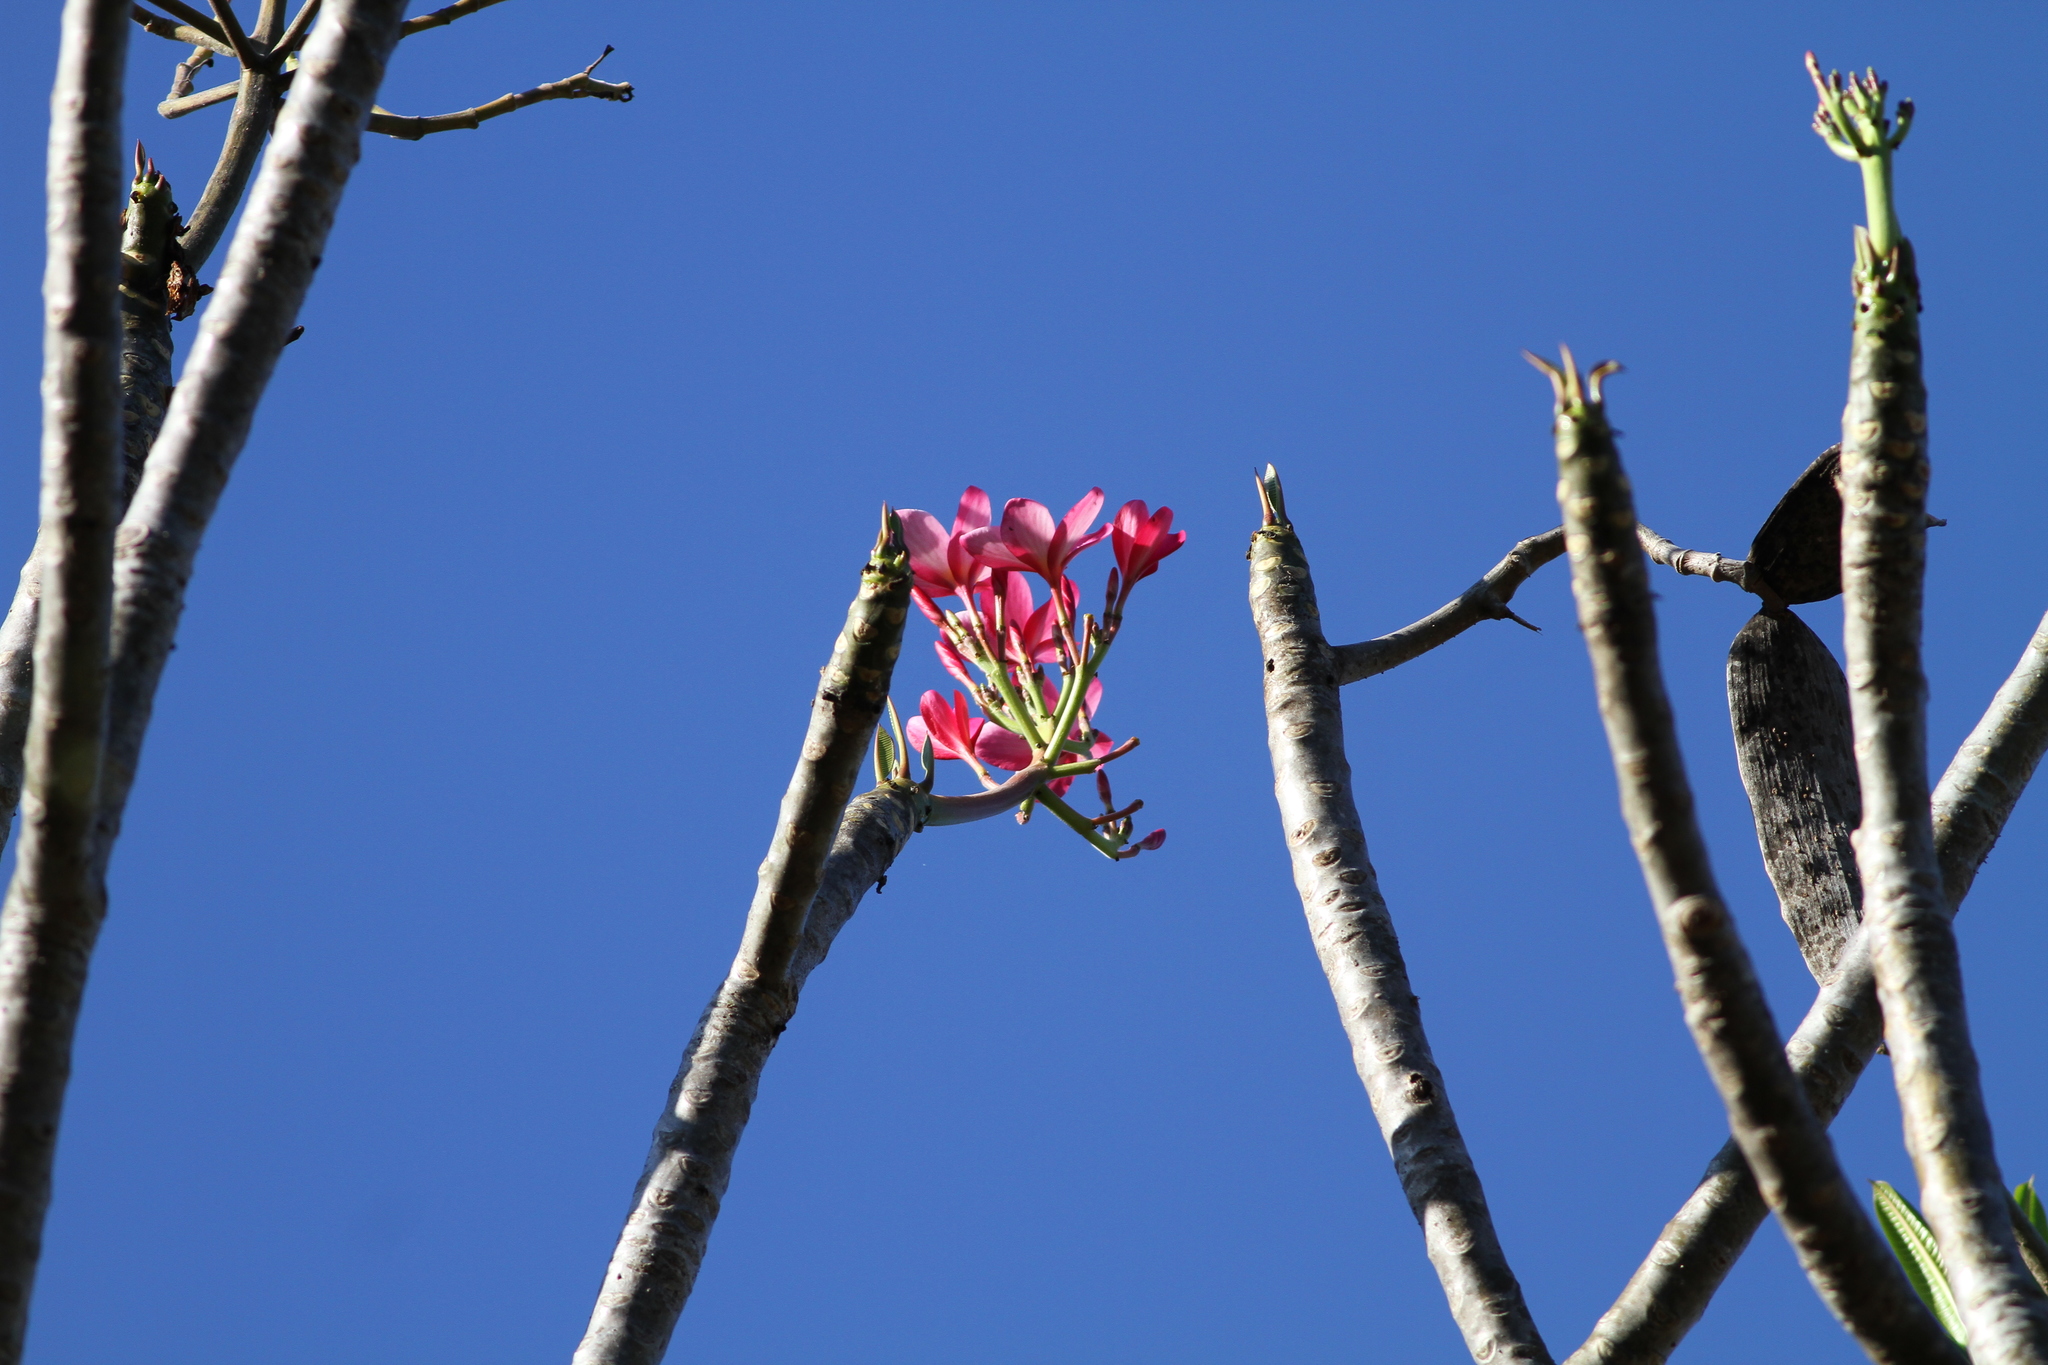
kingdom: Plantae
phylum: Tracheophyta
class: Magnoliopsida
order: Gentianales
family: Apocynaceae
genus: Plumeria
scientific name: Plumeria rubra
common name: Pagoda-tree
